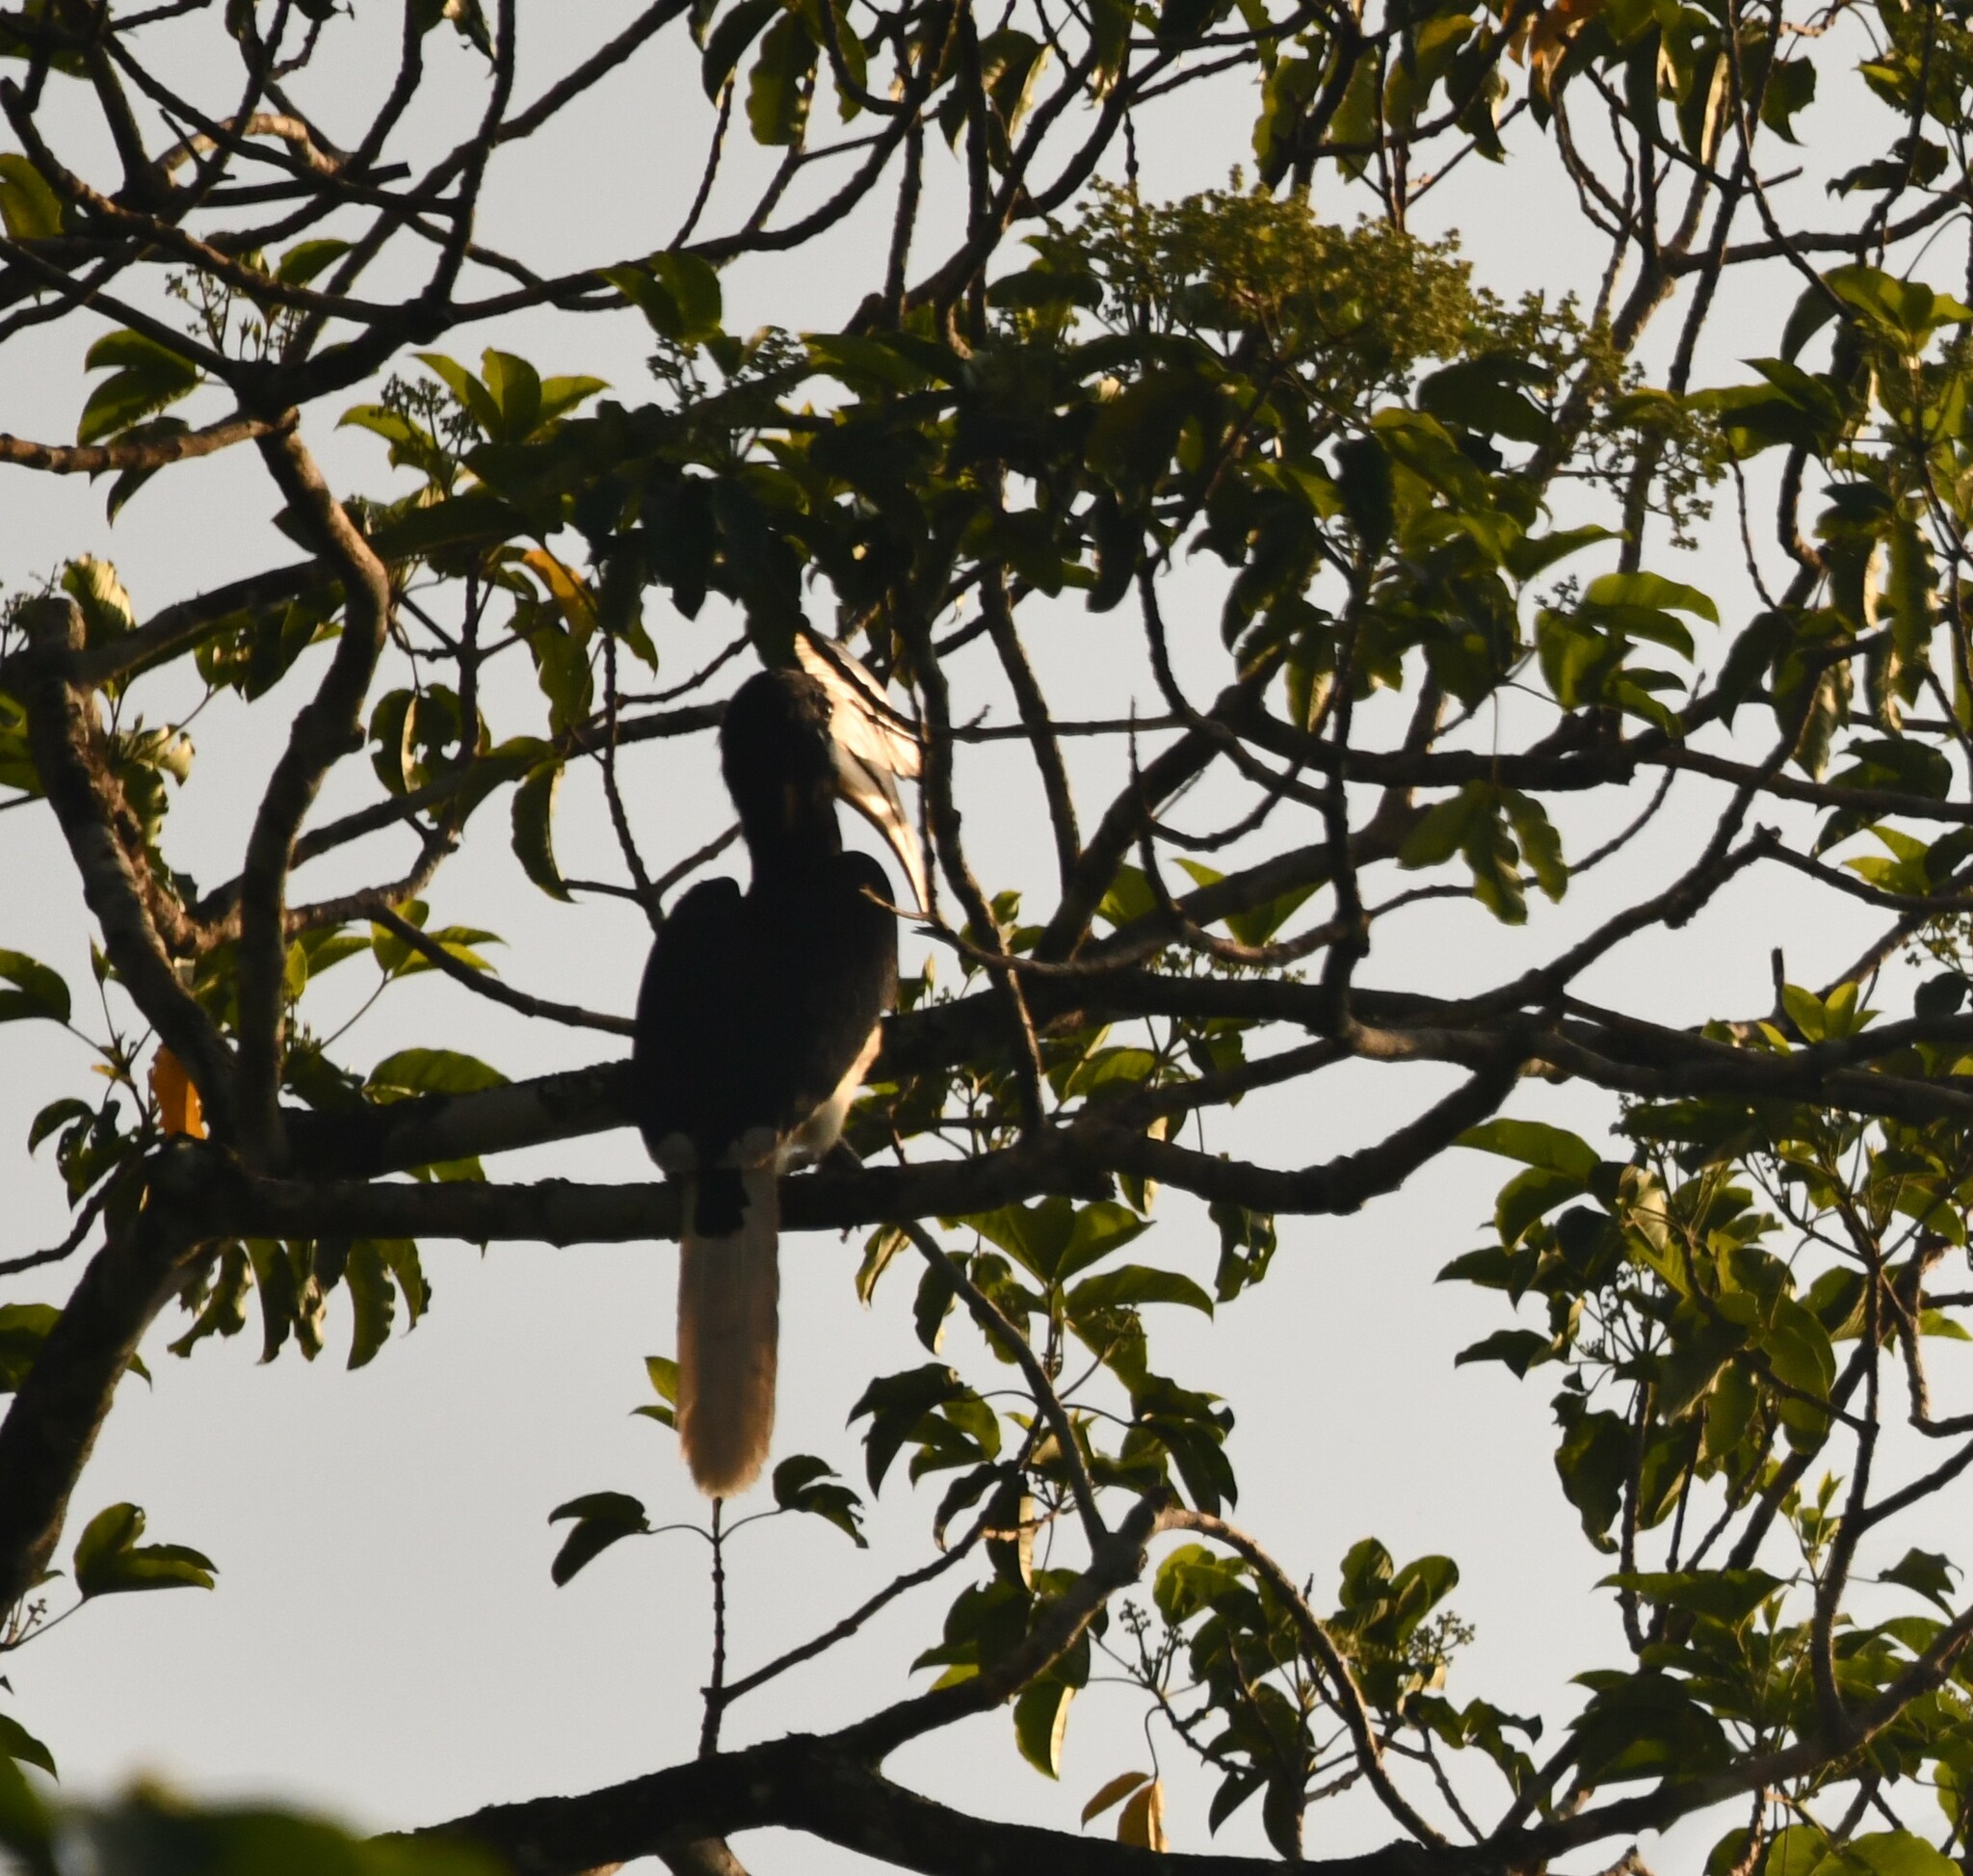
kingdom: Animalia
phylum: Chordata
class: Aves
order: Bucerotiformes
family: Bucerotidae
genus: Anthracoceros
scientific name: Anthracoceros coronatus
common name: Malabar pied hornbill
